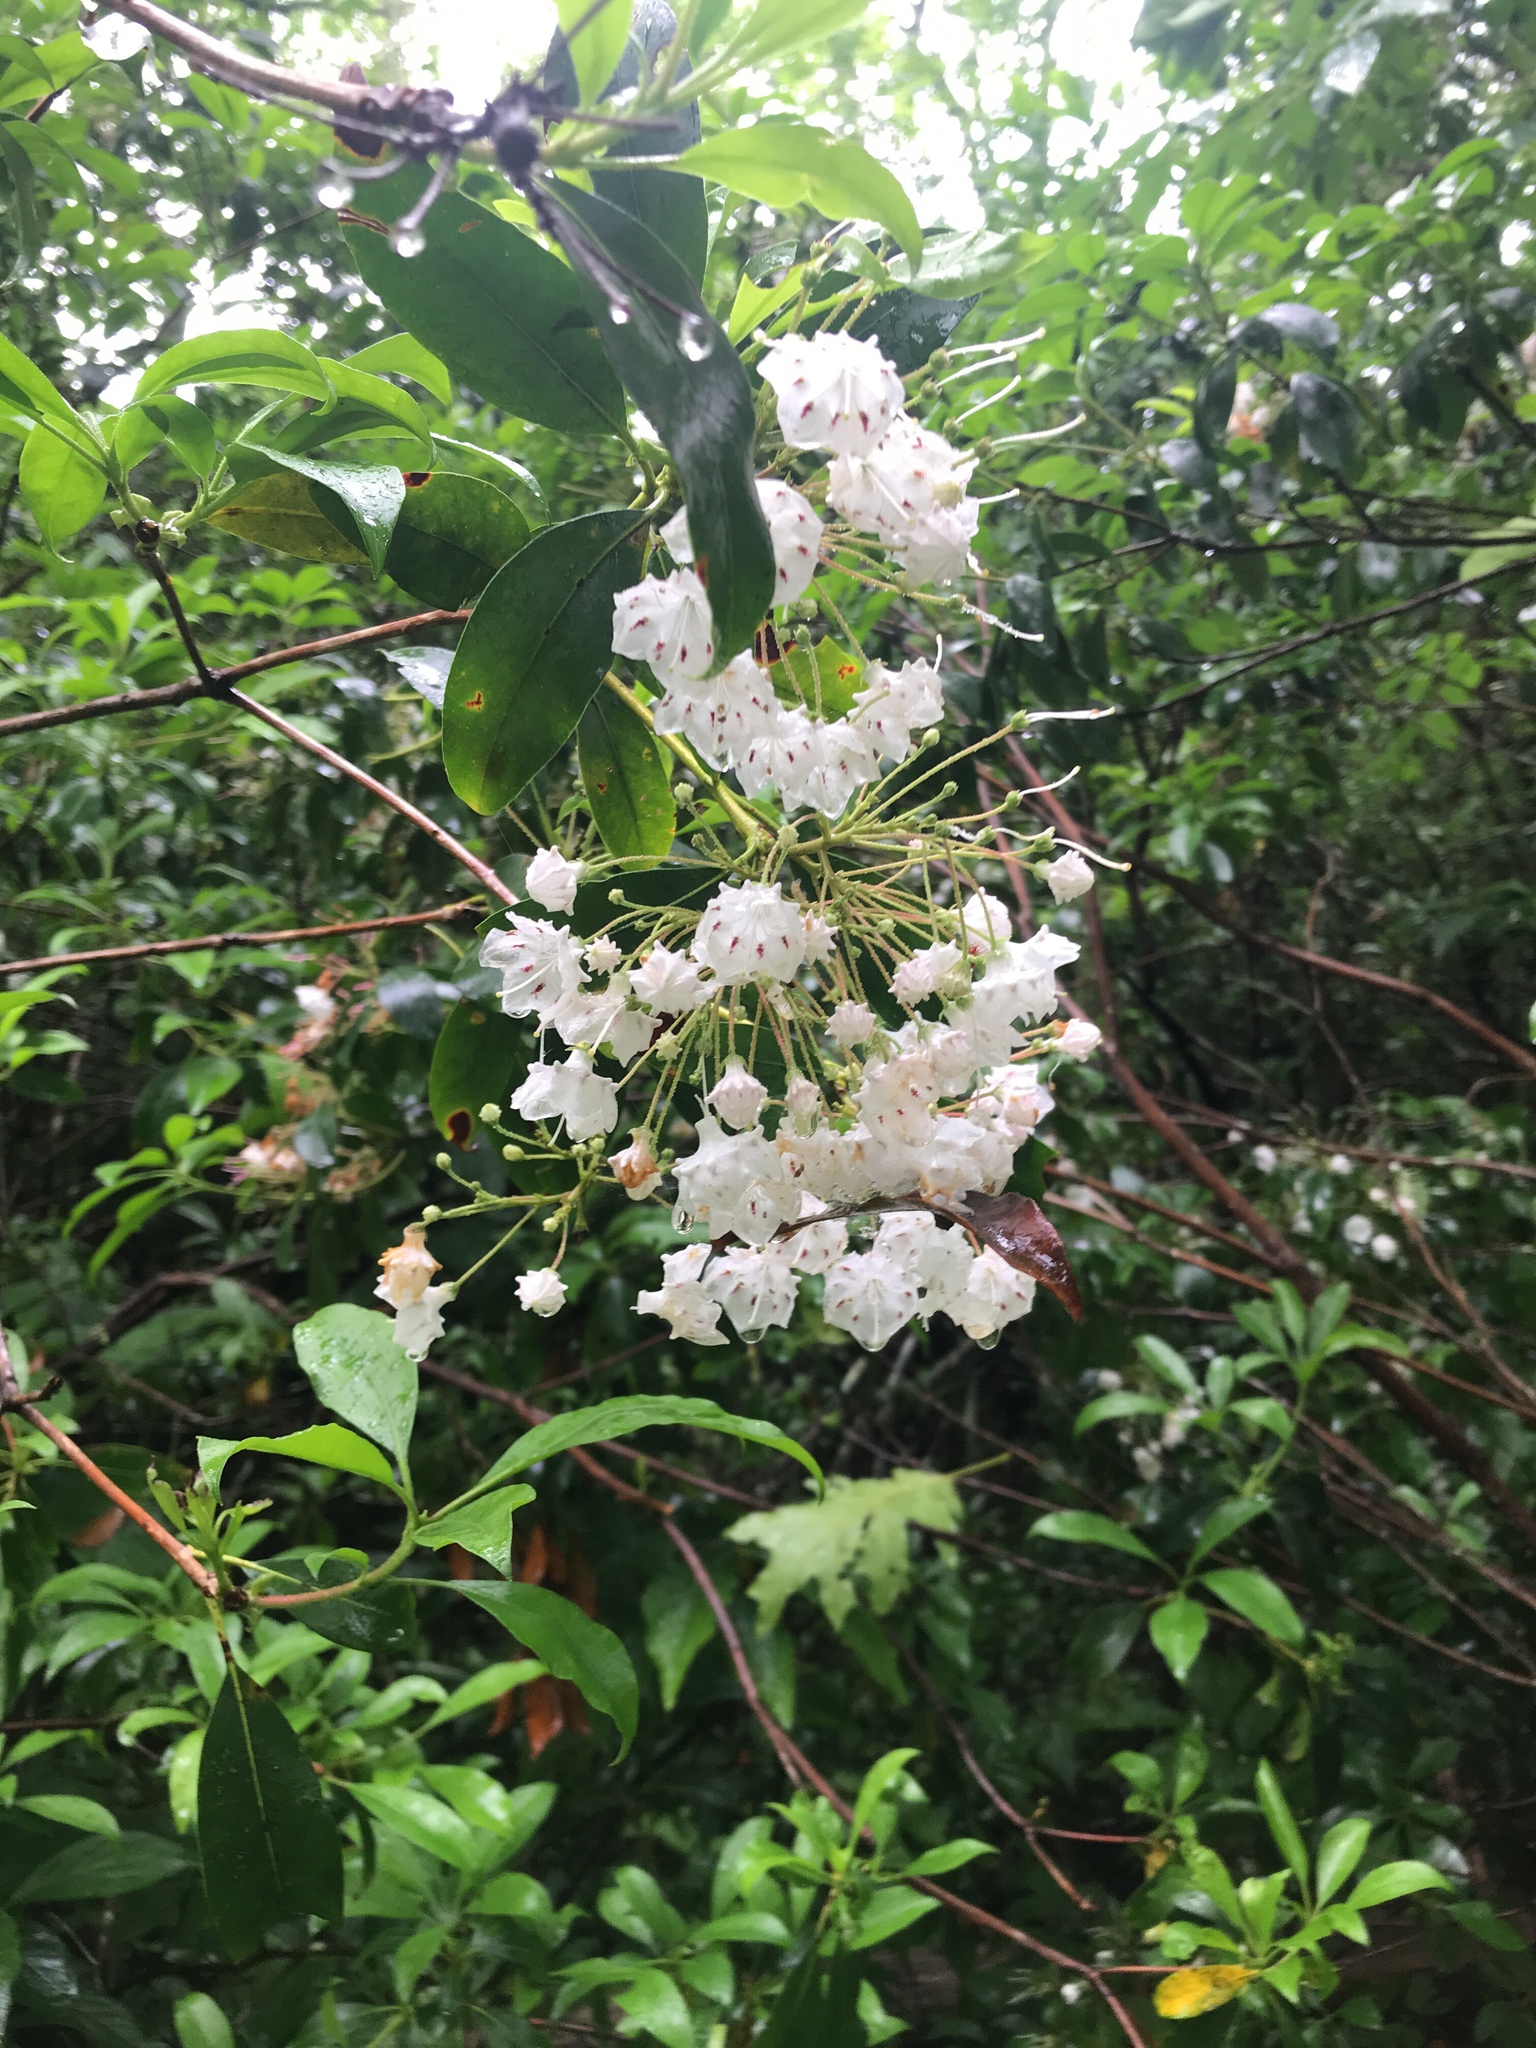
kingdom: Plantae
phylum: Tracheophyta
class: Magnoliopsida
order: Ericales
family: Ericaceae
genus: Kalmia
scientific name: Kalmia latifolia
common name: Mountain-laurel
